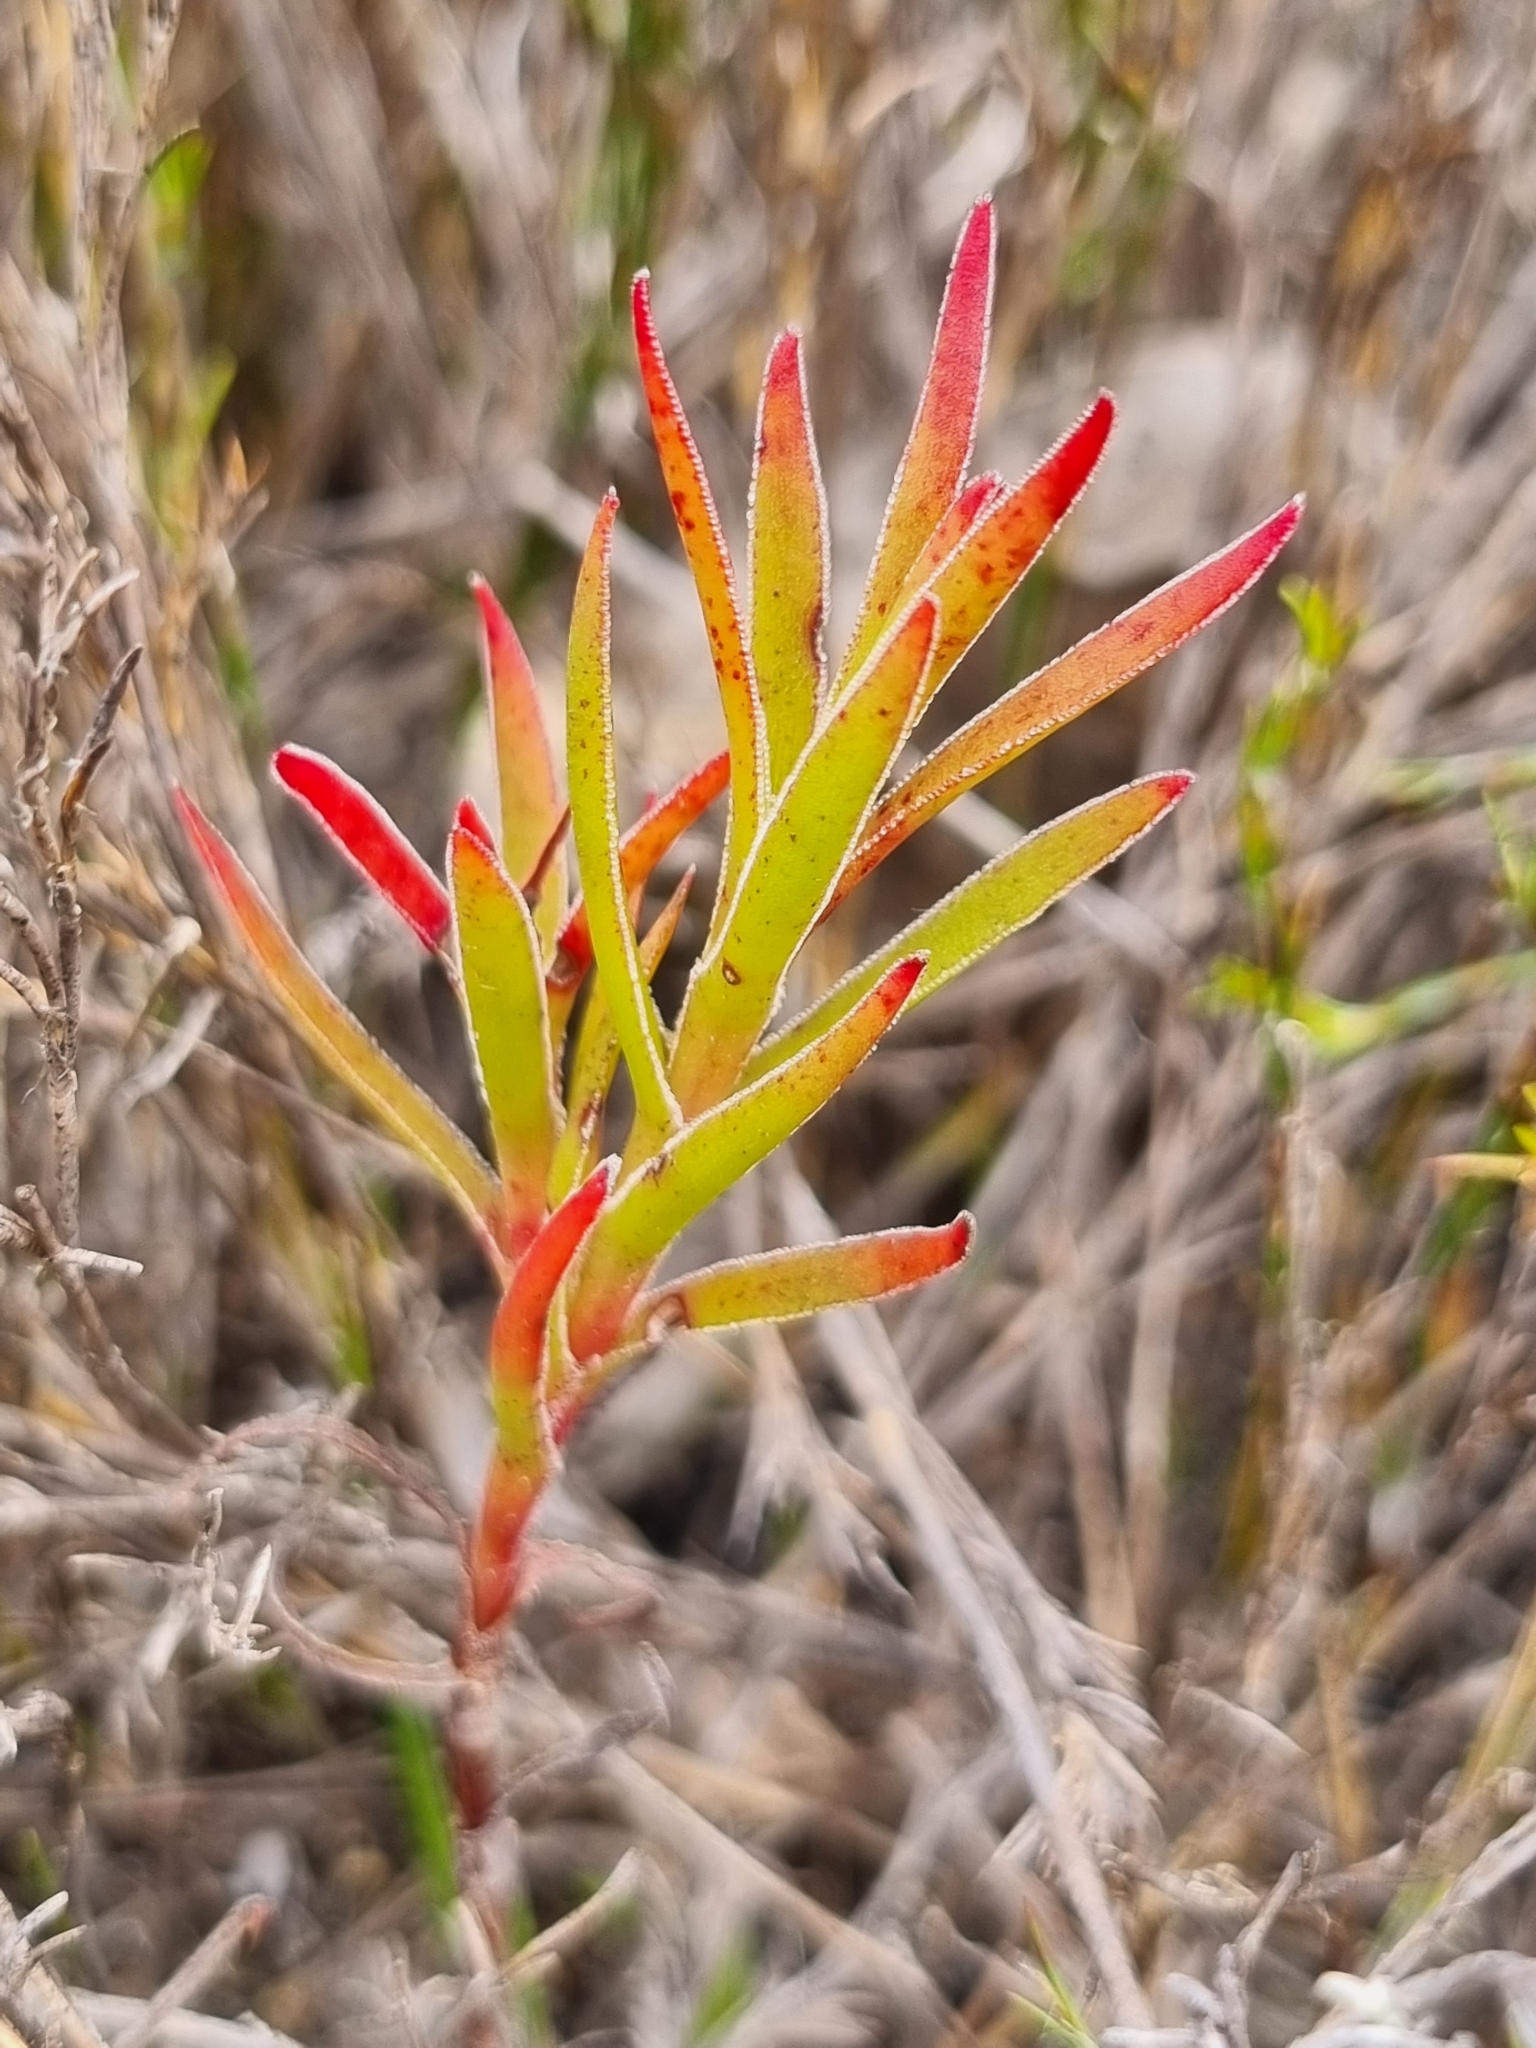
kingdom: Plantae
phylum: Tracheophyta
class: Magnoliopsida
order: Saxifragales
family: Crassulaceae
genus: Crassula
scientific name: Crassula fascicularis
